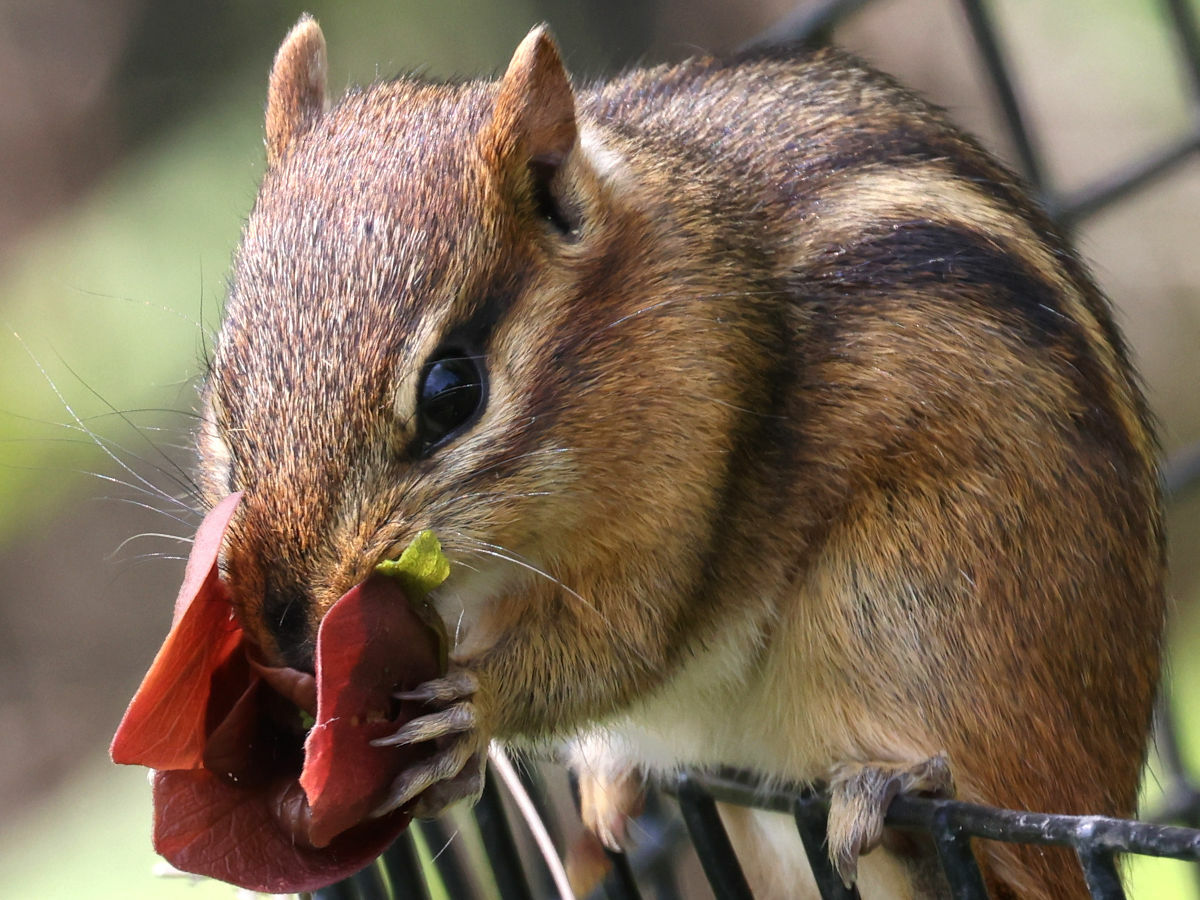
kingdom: Animalia
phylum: Chordata
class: Mammalia
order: Rodentia
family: Sciuridae
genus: Tamias
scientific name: Tamias striatus
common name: Eastern chipmunk
